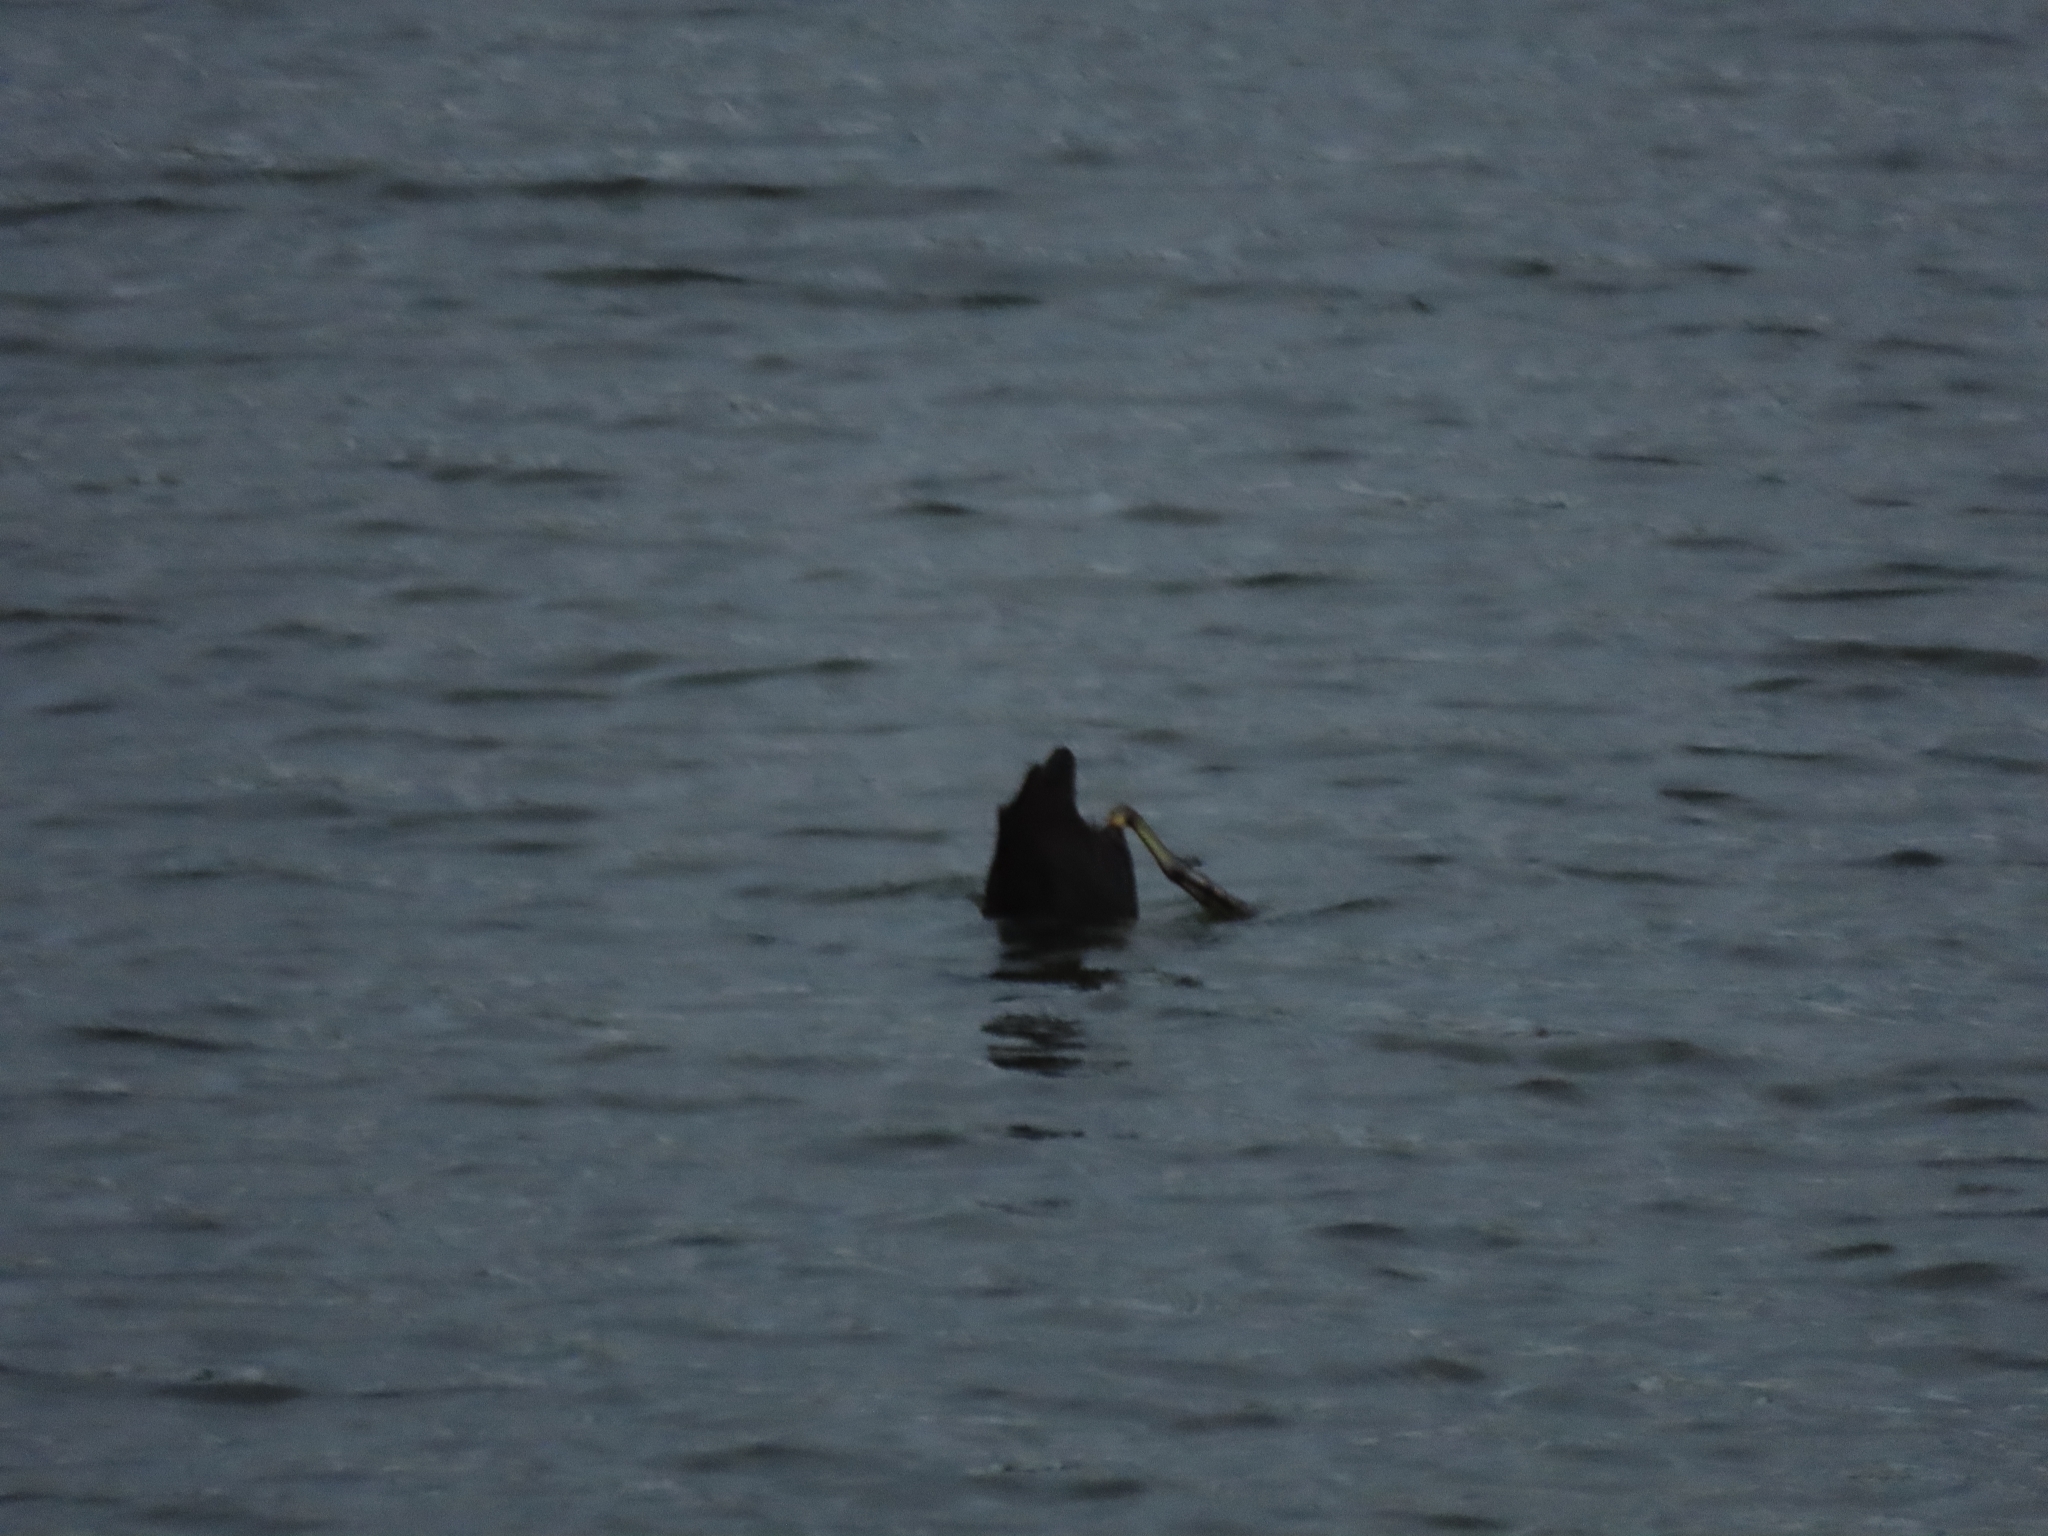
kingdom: Animalia
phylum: Chordata
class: Aves
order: Gruiformes
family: Rallidae
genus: Fulica
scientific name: Fulica atra
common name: Eurasian coot
